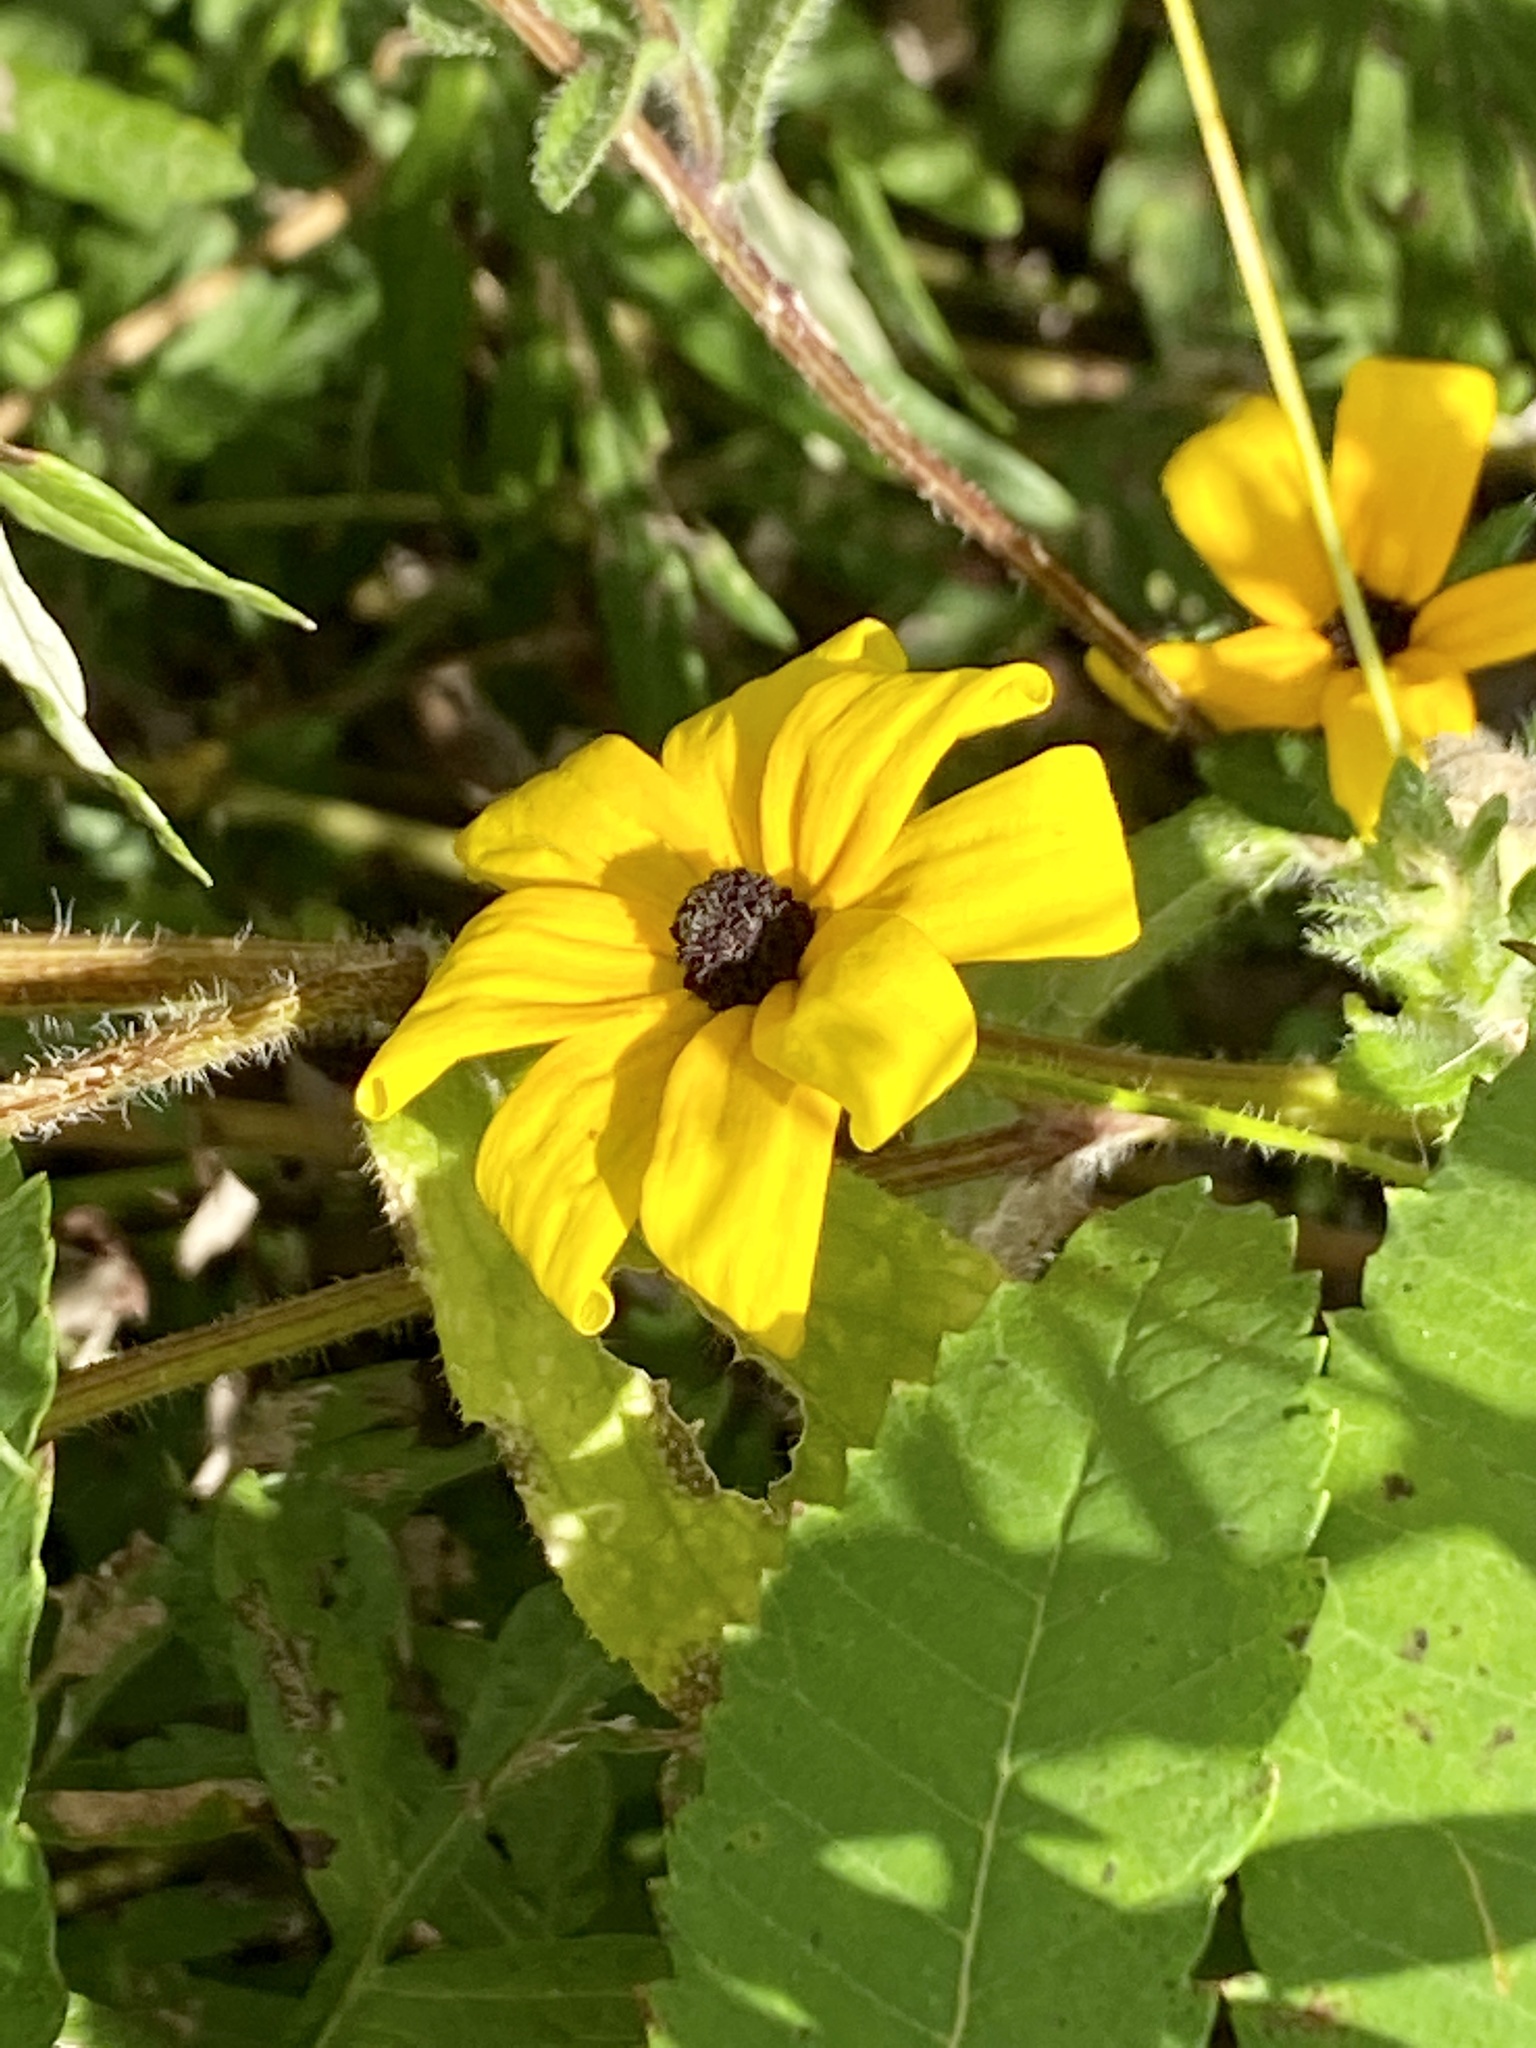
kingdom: Plantae
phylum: Tracheophyta
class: Magnoliopsida
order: Asterales
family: Asteraceae
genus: Rudbeckia
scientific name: Rudbeckia hirta
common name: Black-eyed-susan
